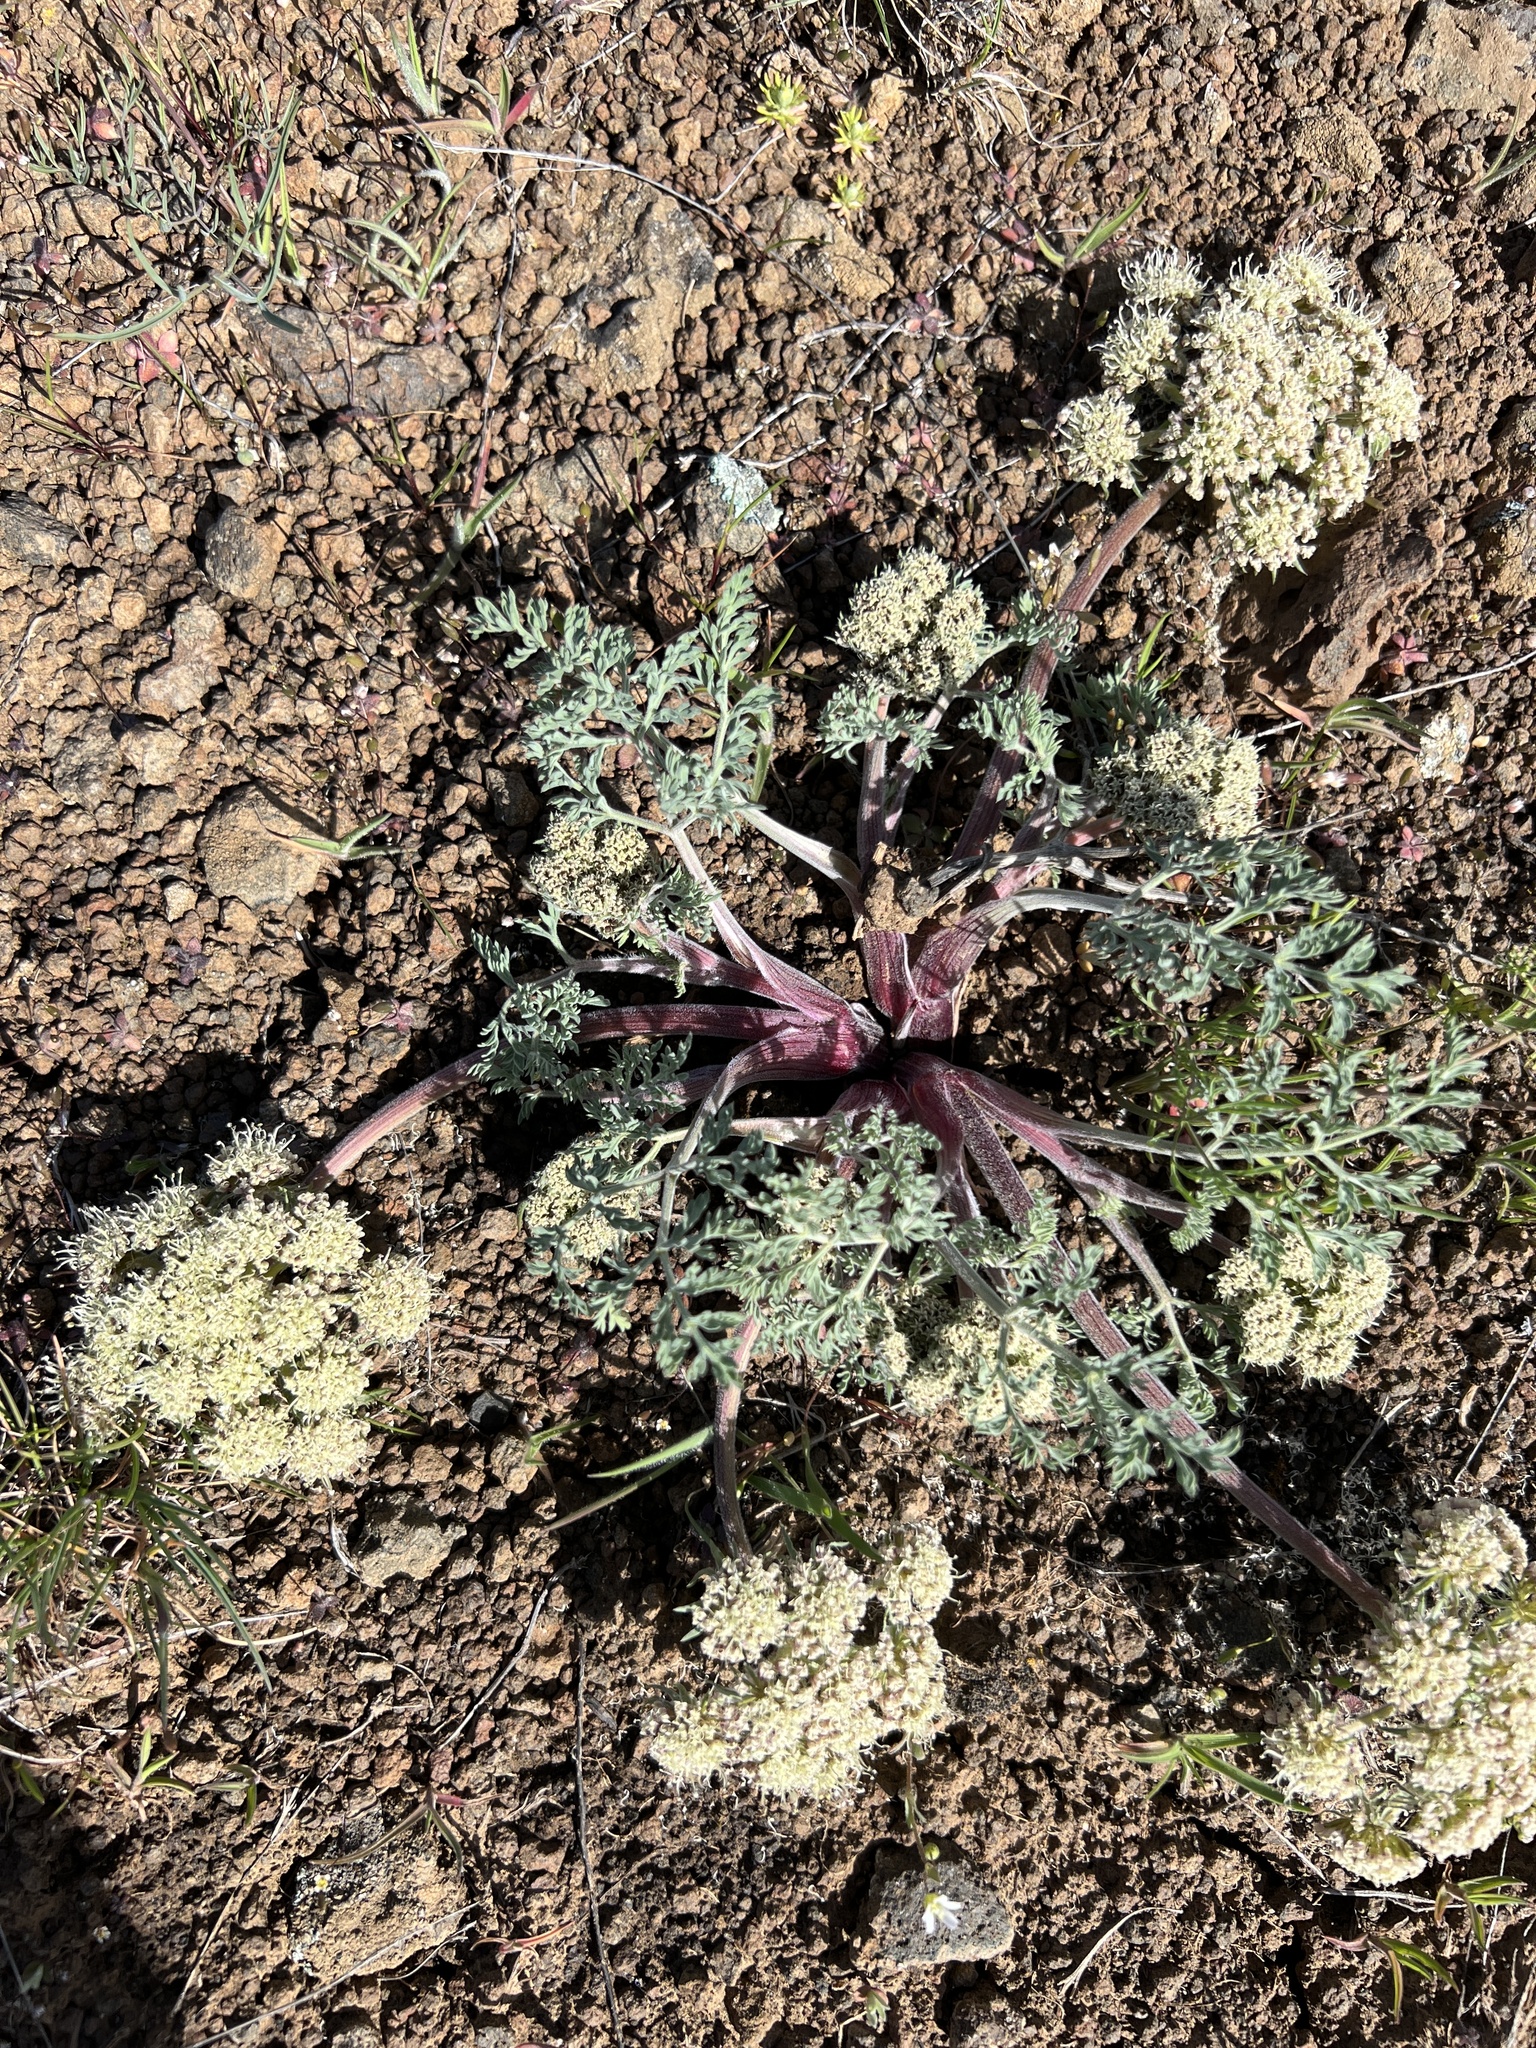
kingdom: Plantae
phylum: Tracheophyta
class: Magnoliopsida
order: Apiales
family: Apiaceae
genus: Lomatium
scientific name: Lomatium macrocarpum
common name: Big-seed biscuitroot
